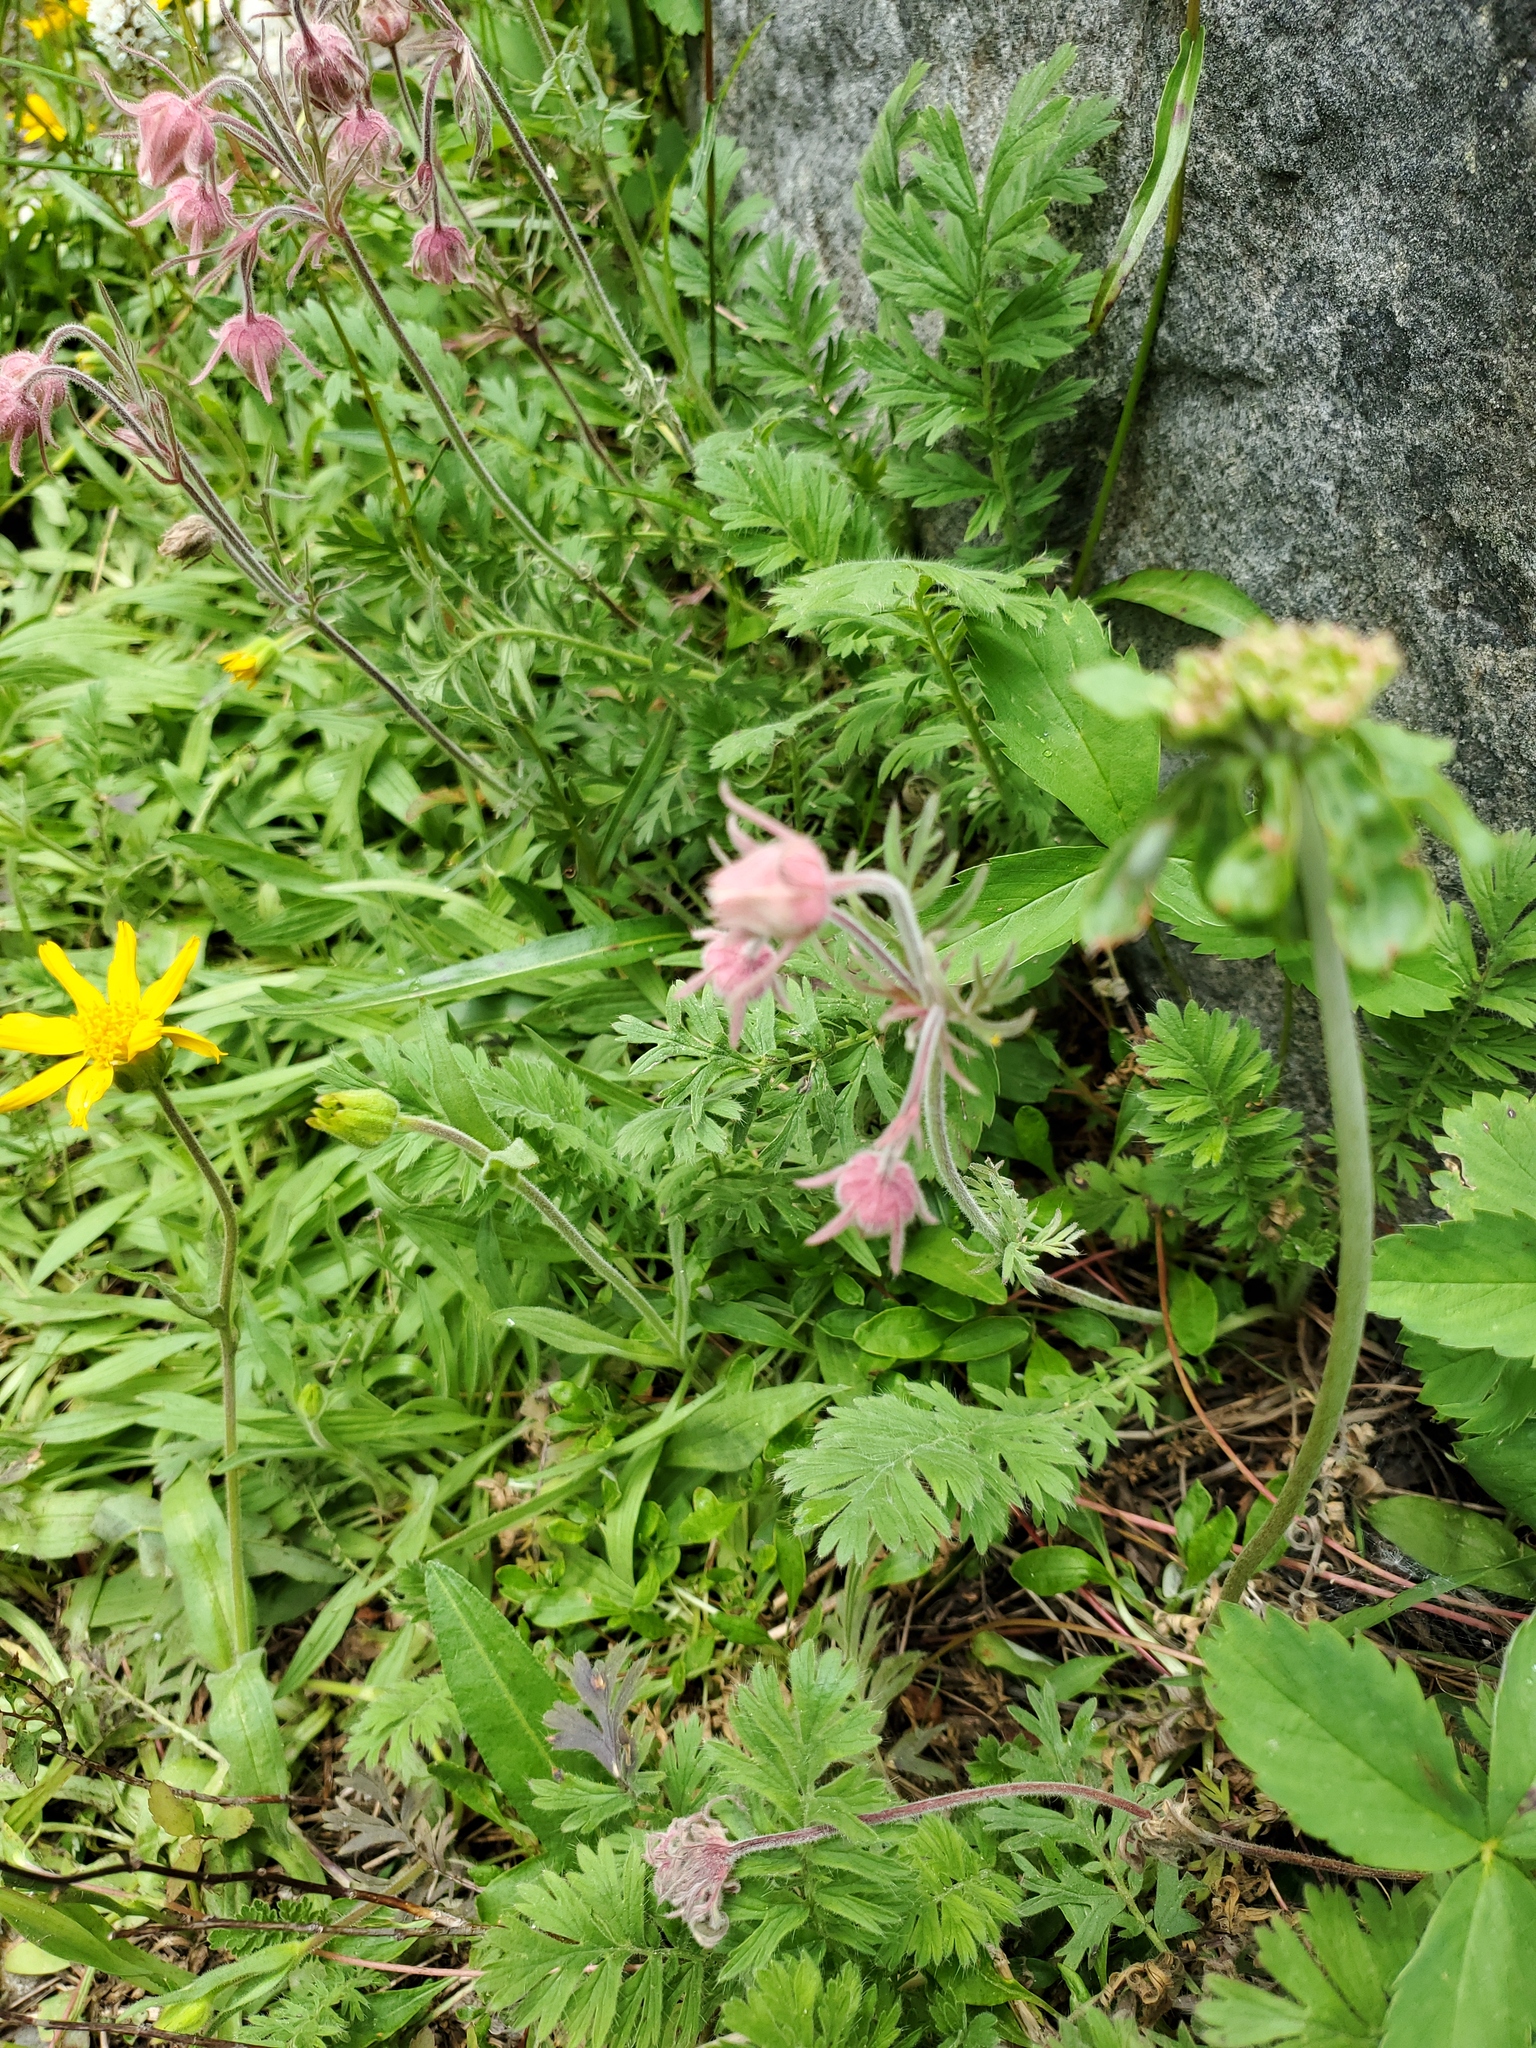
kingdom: Plantae
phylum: Tracheophyta
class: Magnoliopsida
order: Rosales
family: Rosaceae
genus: Geum
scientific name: Geum triflorum
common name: Old man's whiskers
